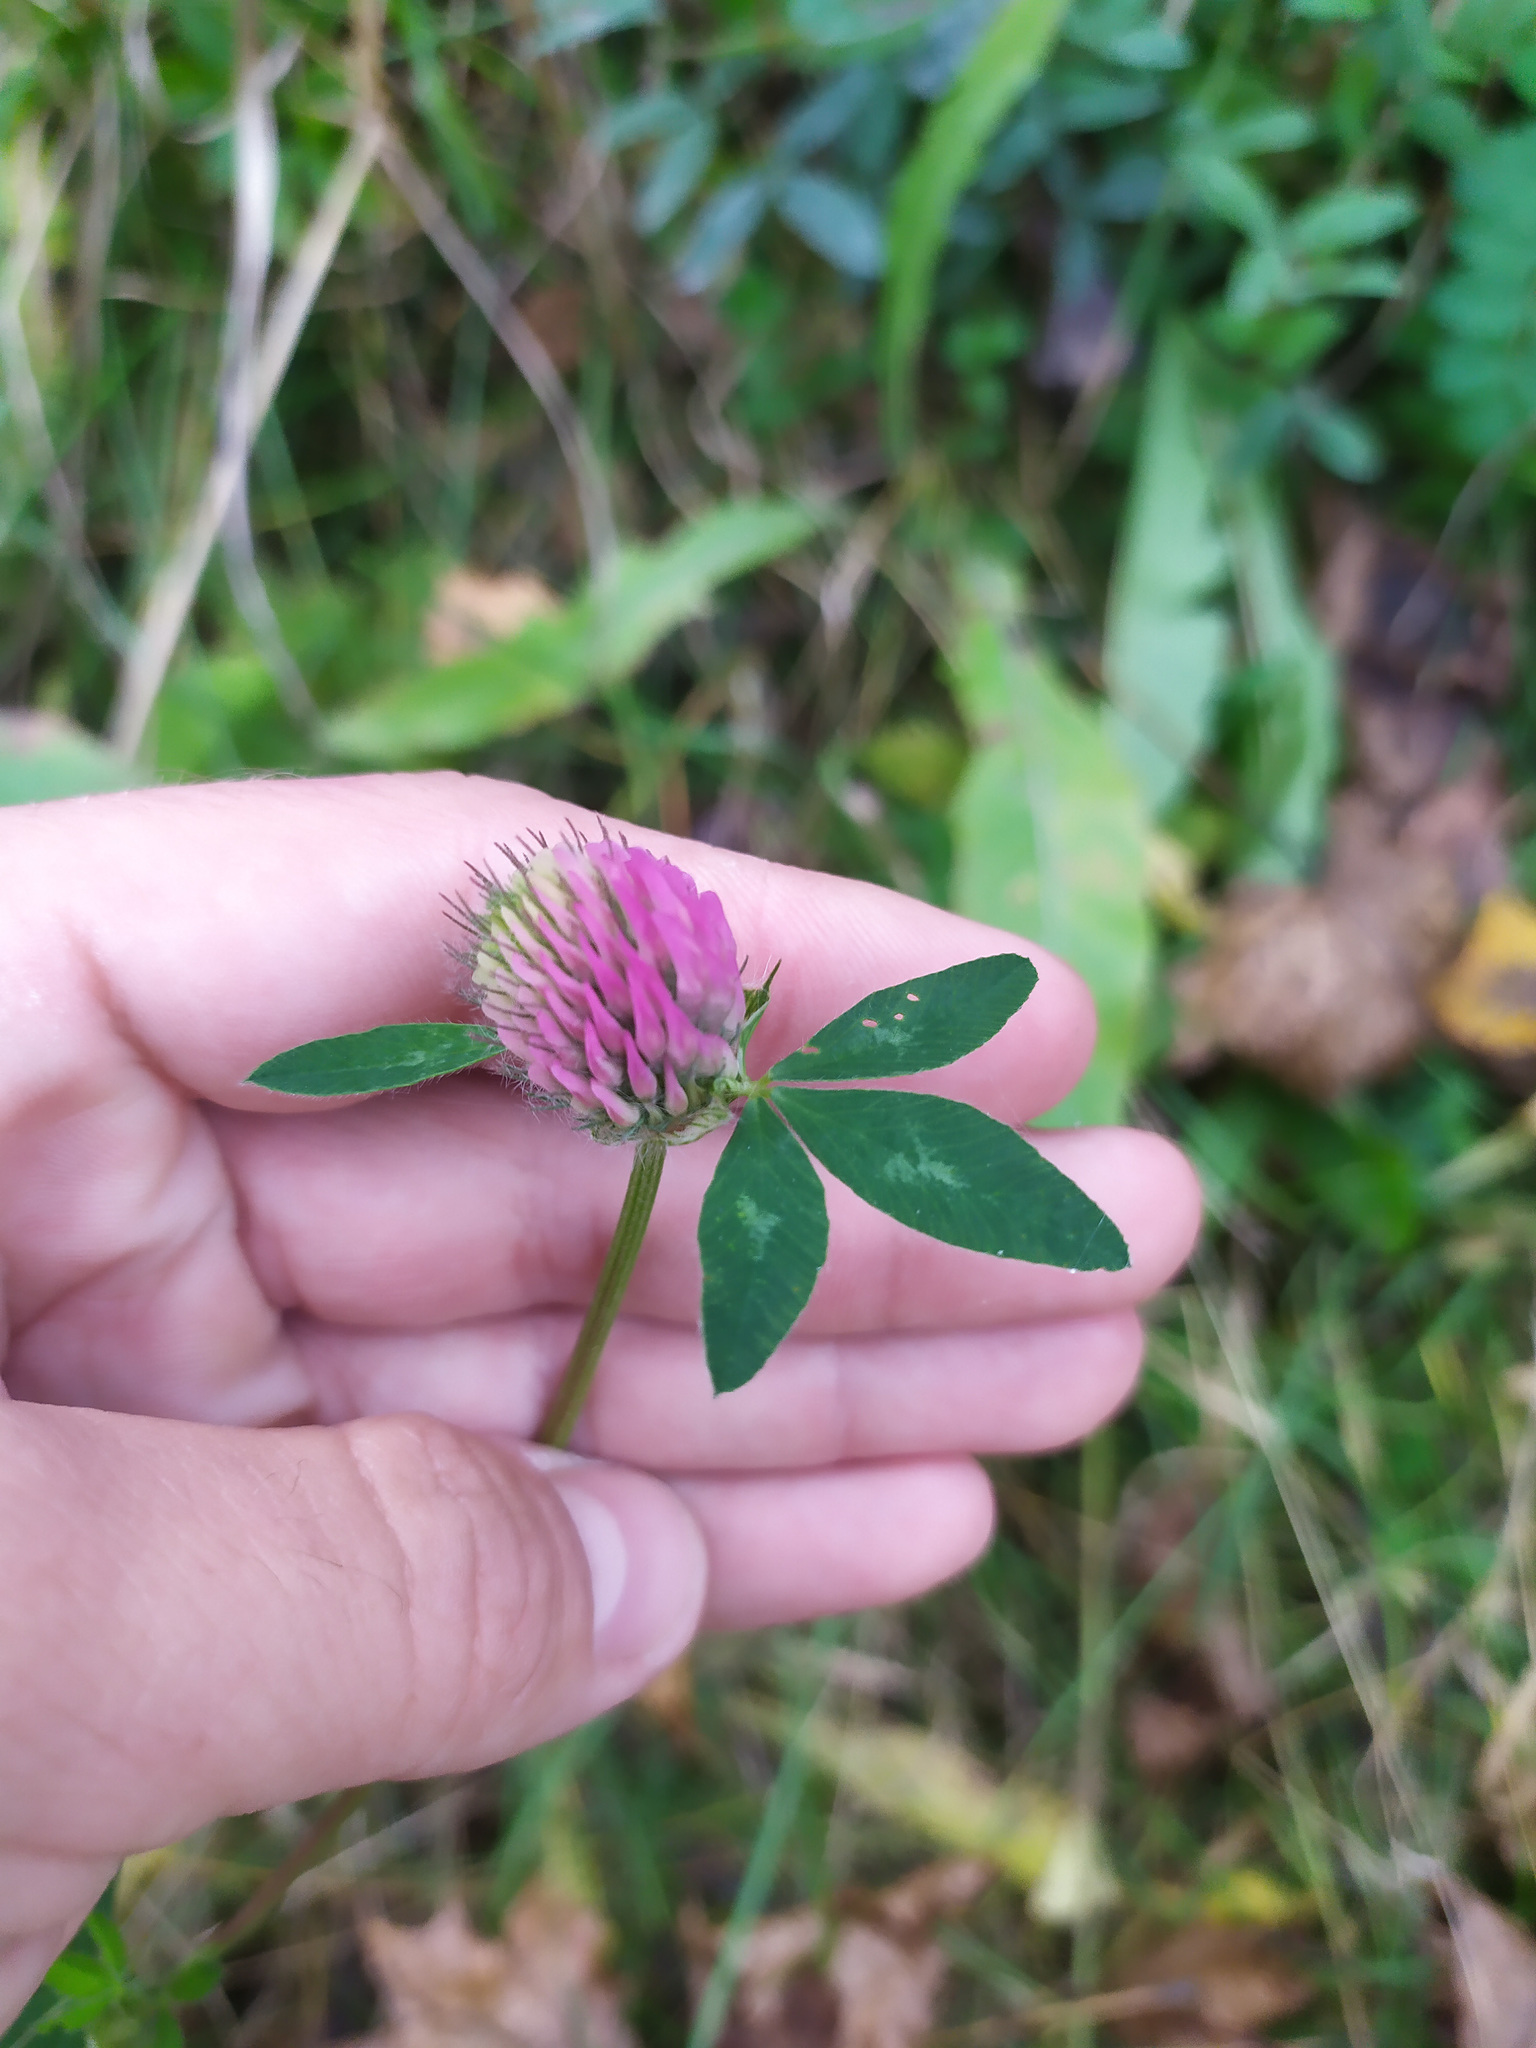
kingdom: Plantae
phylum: Tracheophyta
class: Magnoliopsida
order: Fabales
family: Fabaceae
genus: Trifolium
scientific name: Trifolium pratense
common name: Red clover
